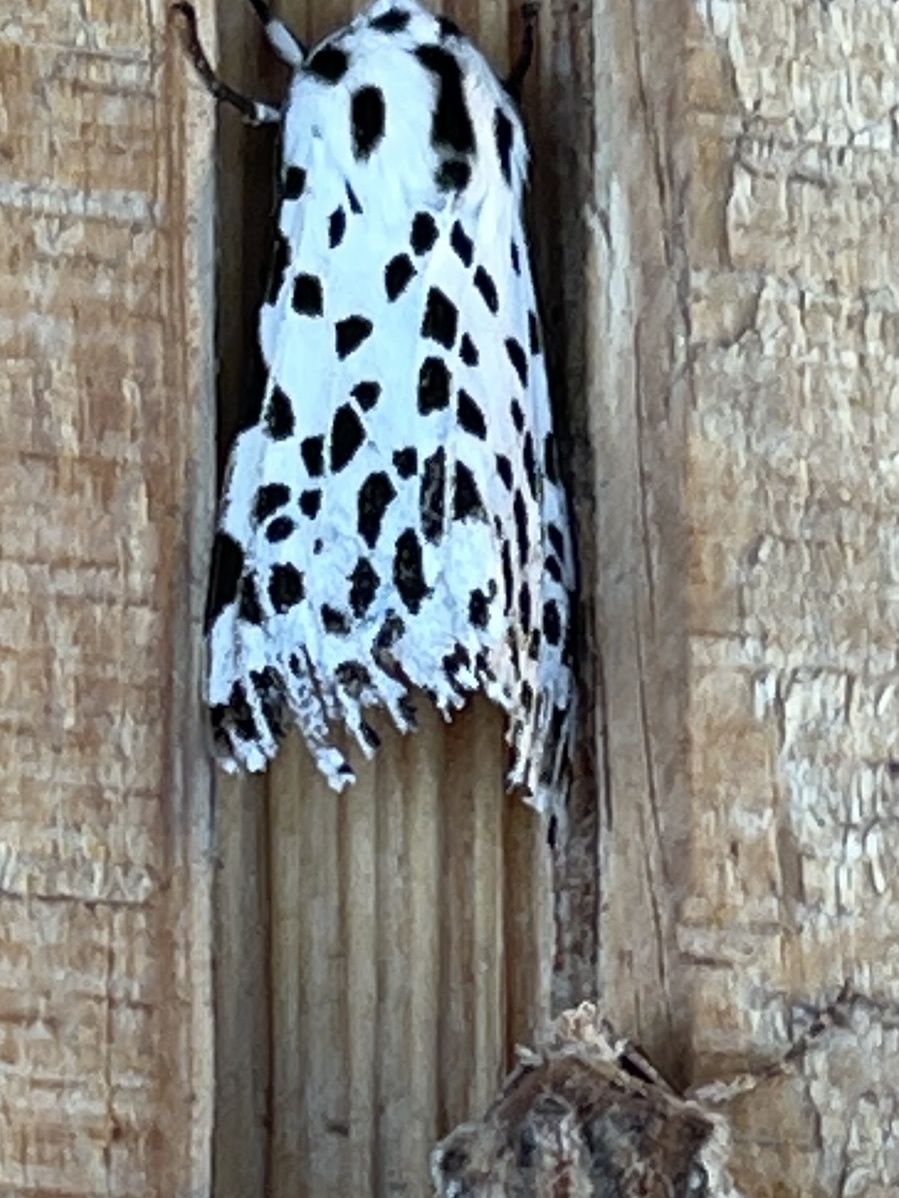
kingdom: Animalia
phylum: Arthropoda
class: Insecta
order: Lepidoptera
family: Erebidae
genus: Hypercompe
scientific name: Hypercompe permaculata
